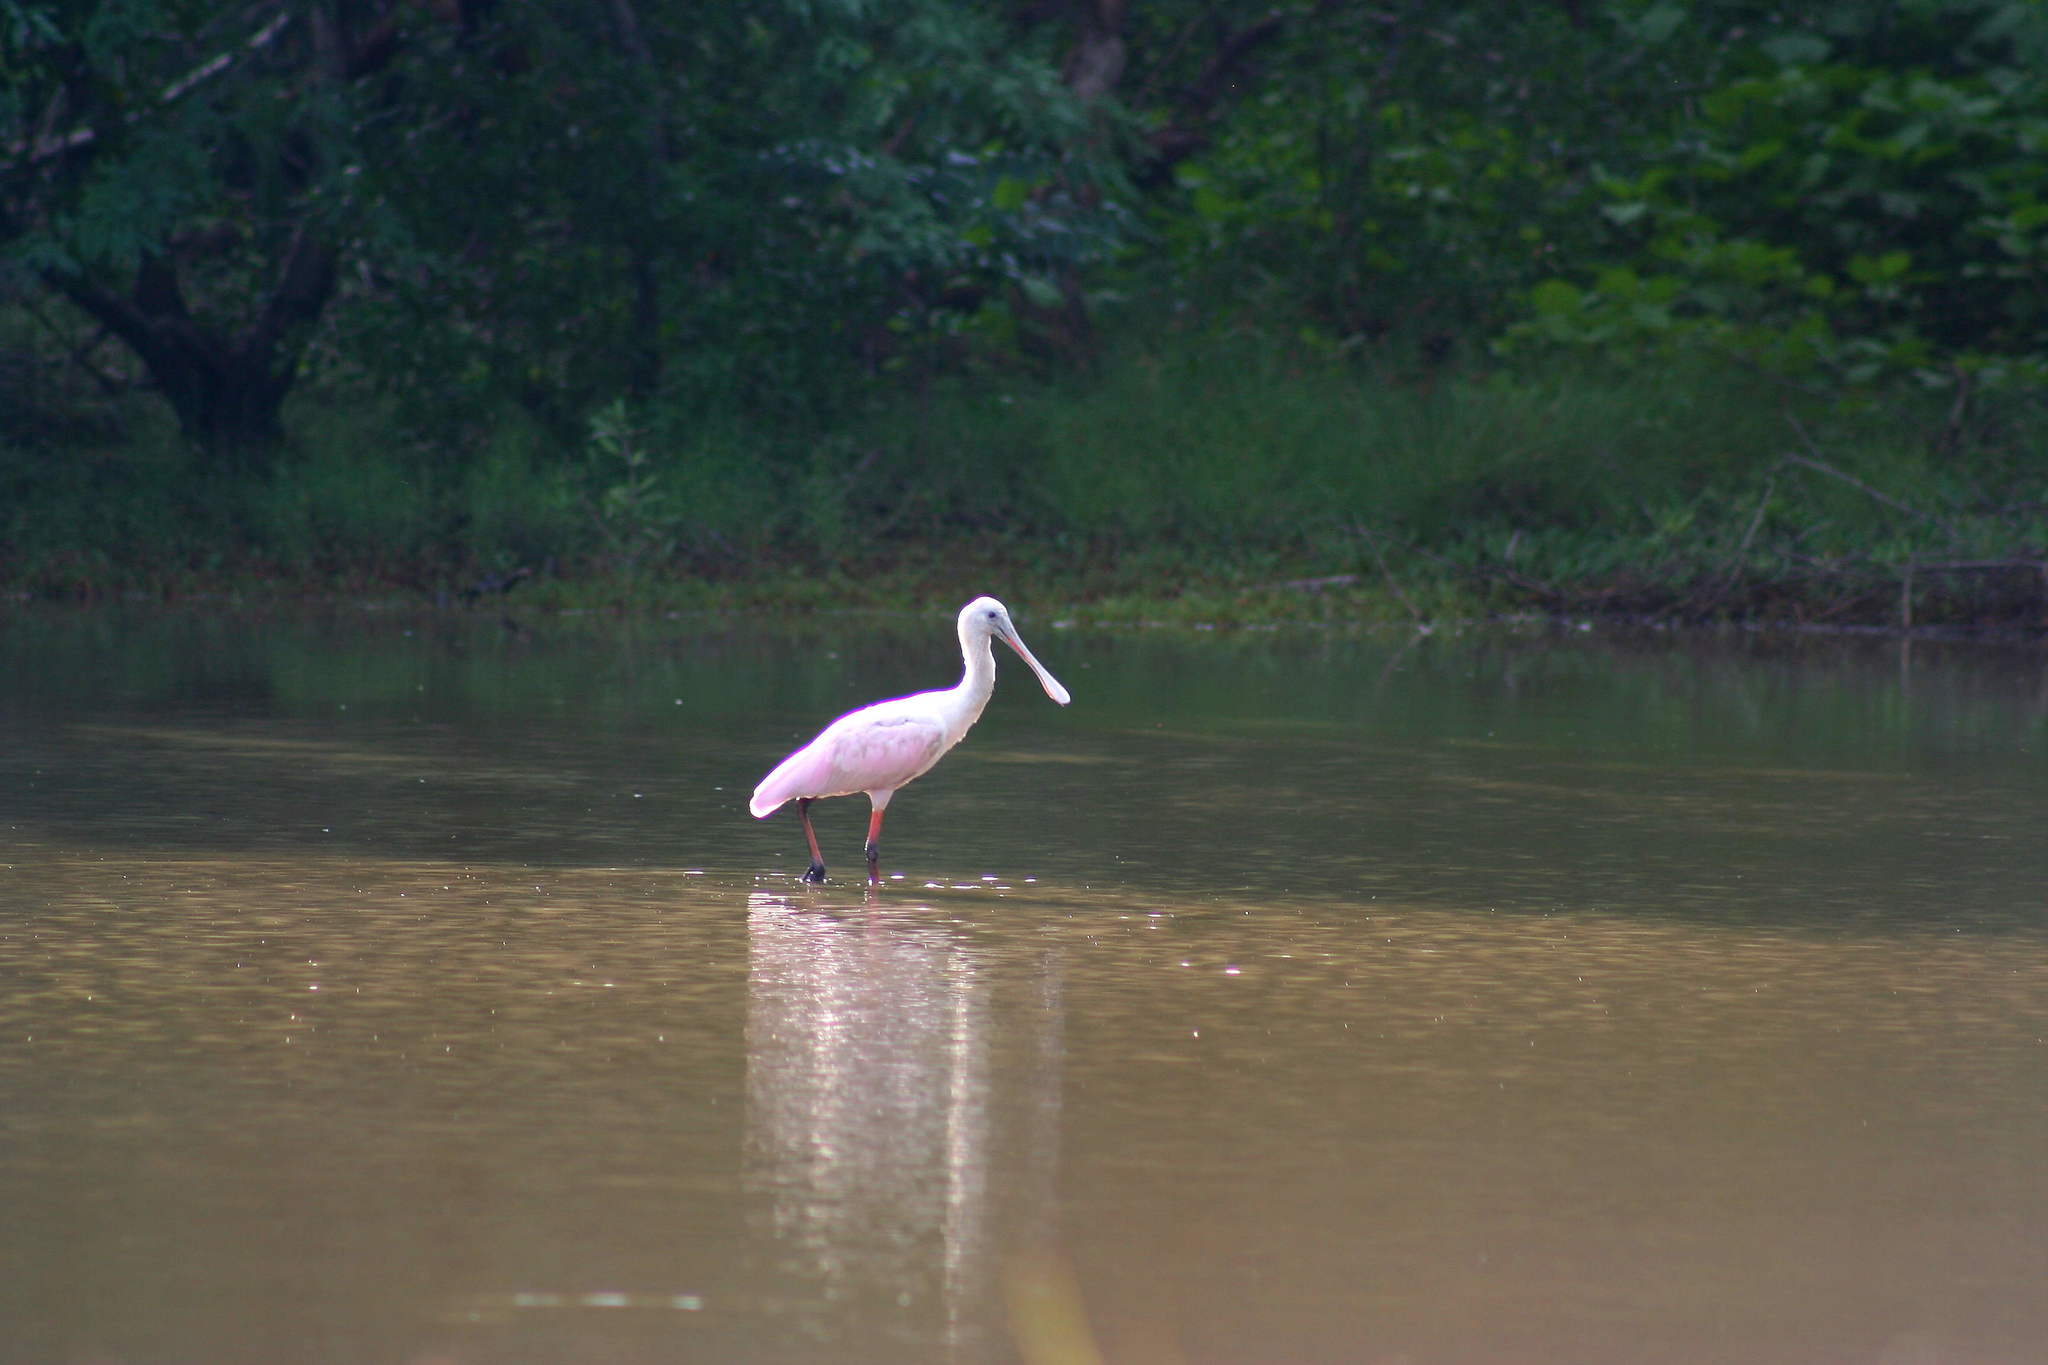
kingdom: Animalia
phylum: Chordata
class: Aves
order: Pelecaniformes
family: Threskiornithidae
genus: Platalea
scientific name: Platalea ajaja
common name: Roseate spoonbill
